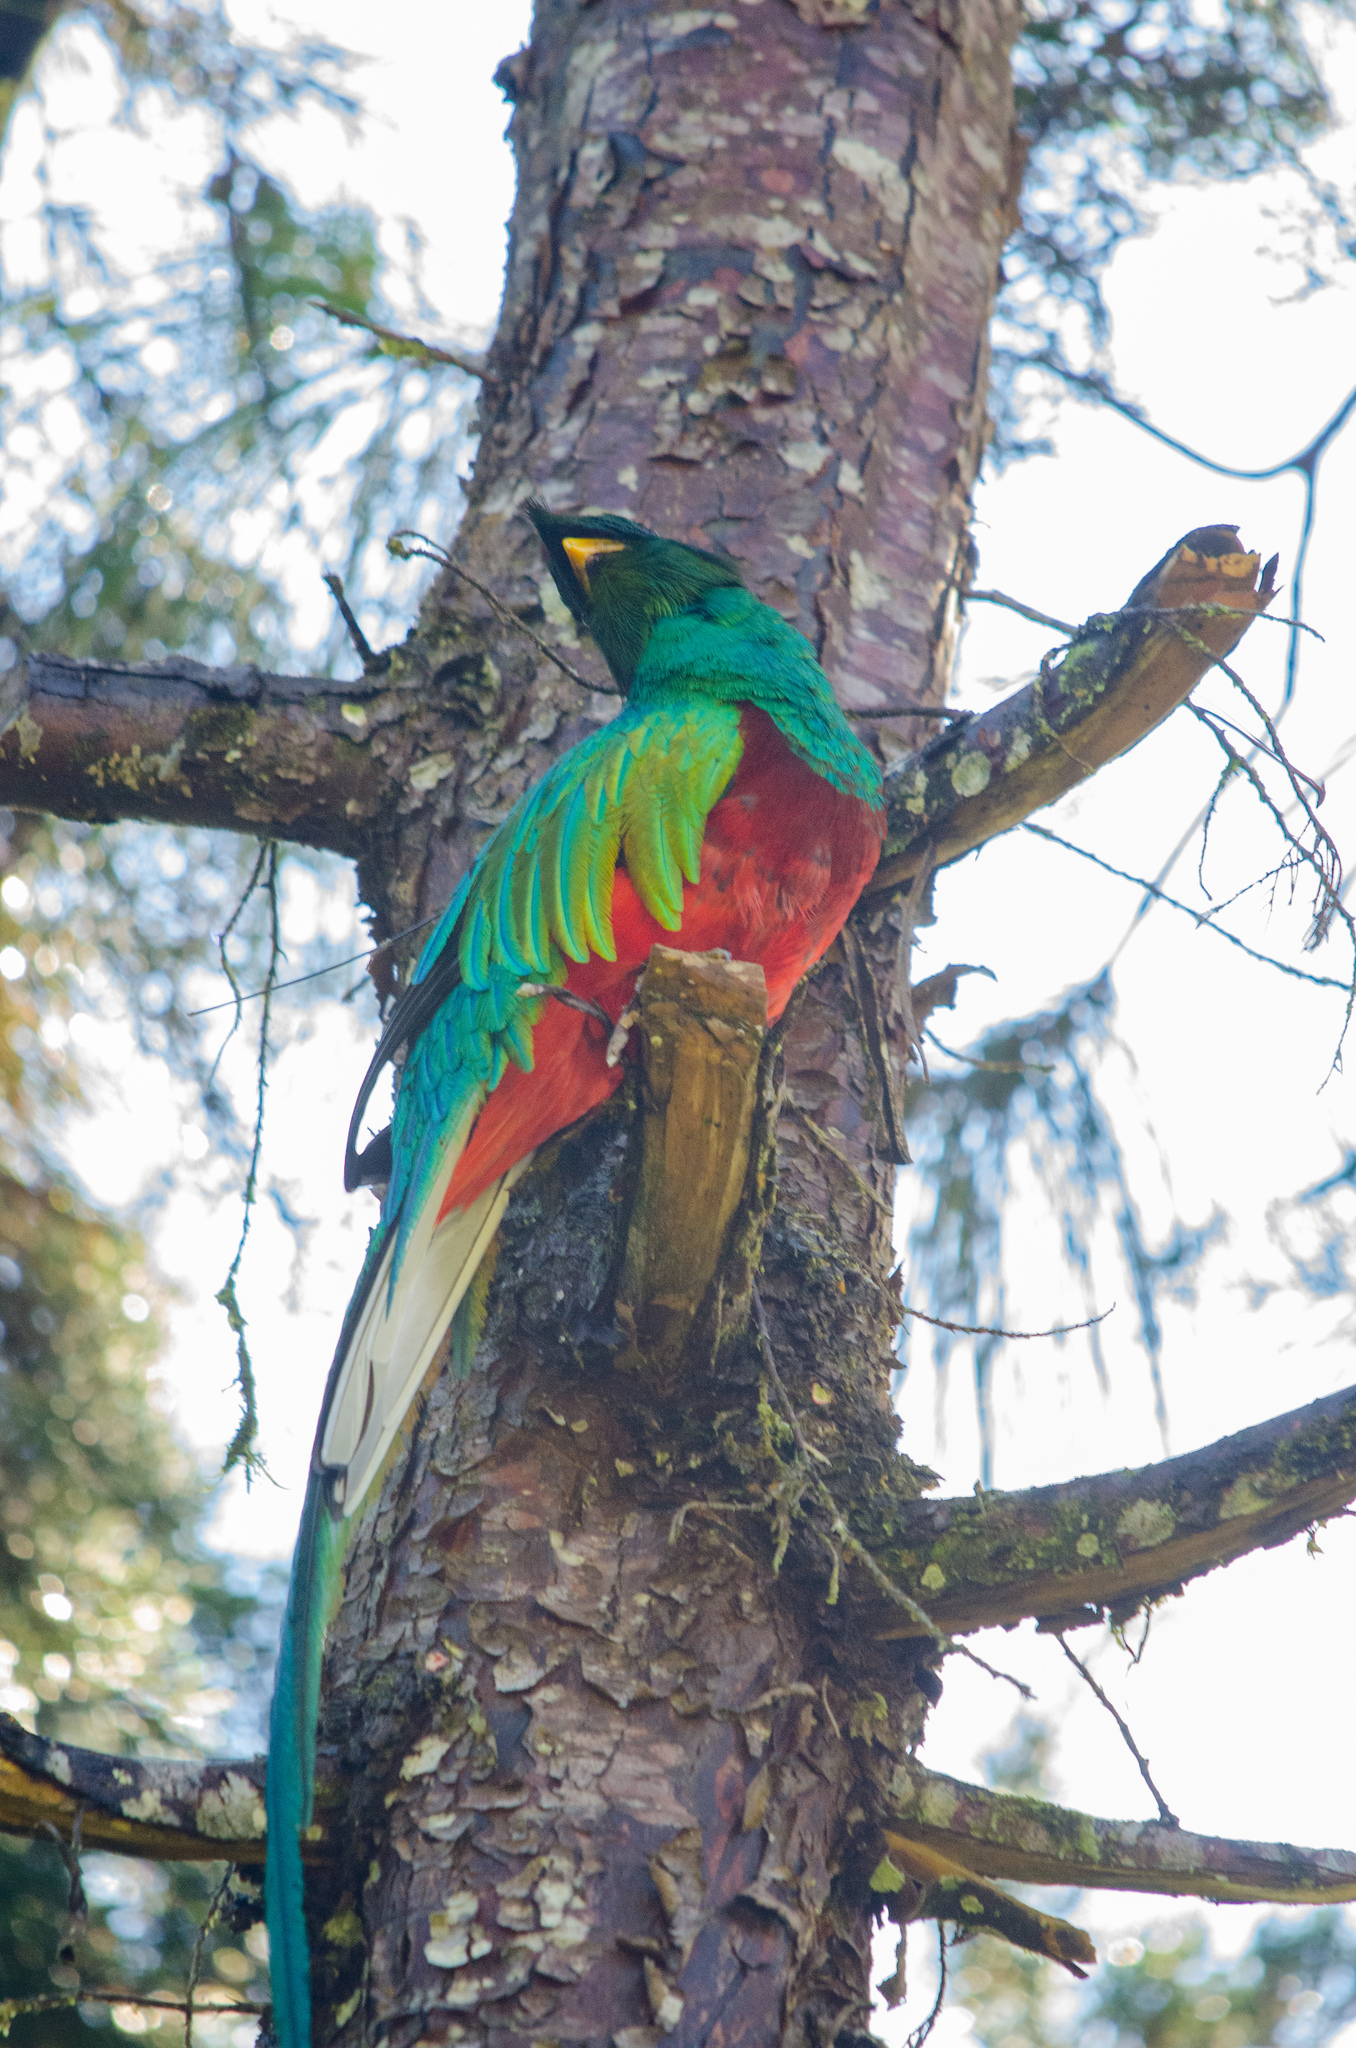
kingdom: Animalia
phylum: Chordata
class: Aves
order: Trogoniformes
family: Trogonidae
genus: Pharomachrus
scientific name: Pharomachrus mocinno
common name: Resplendent quetzal
